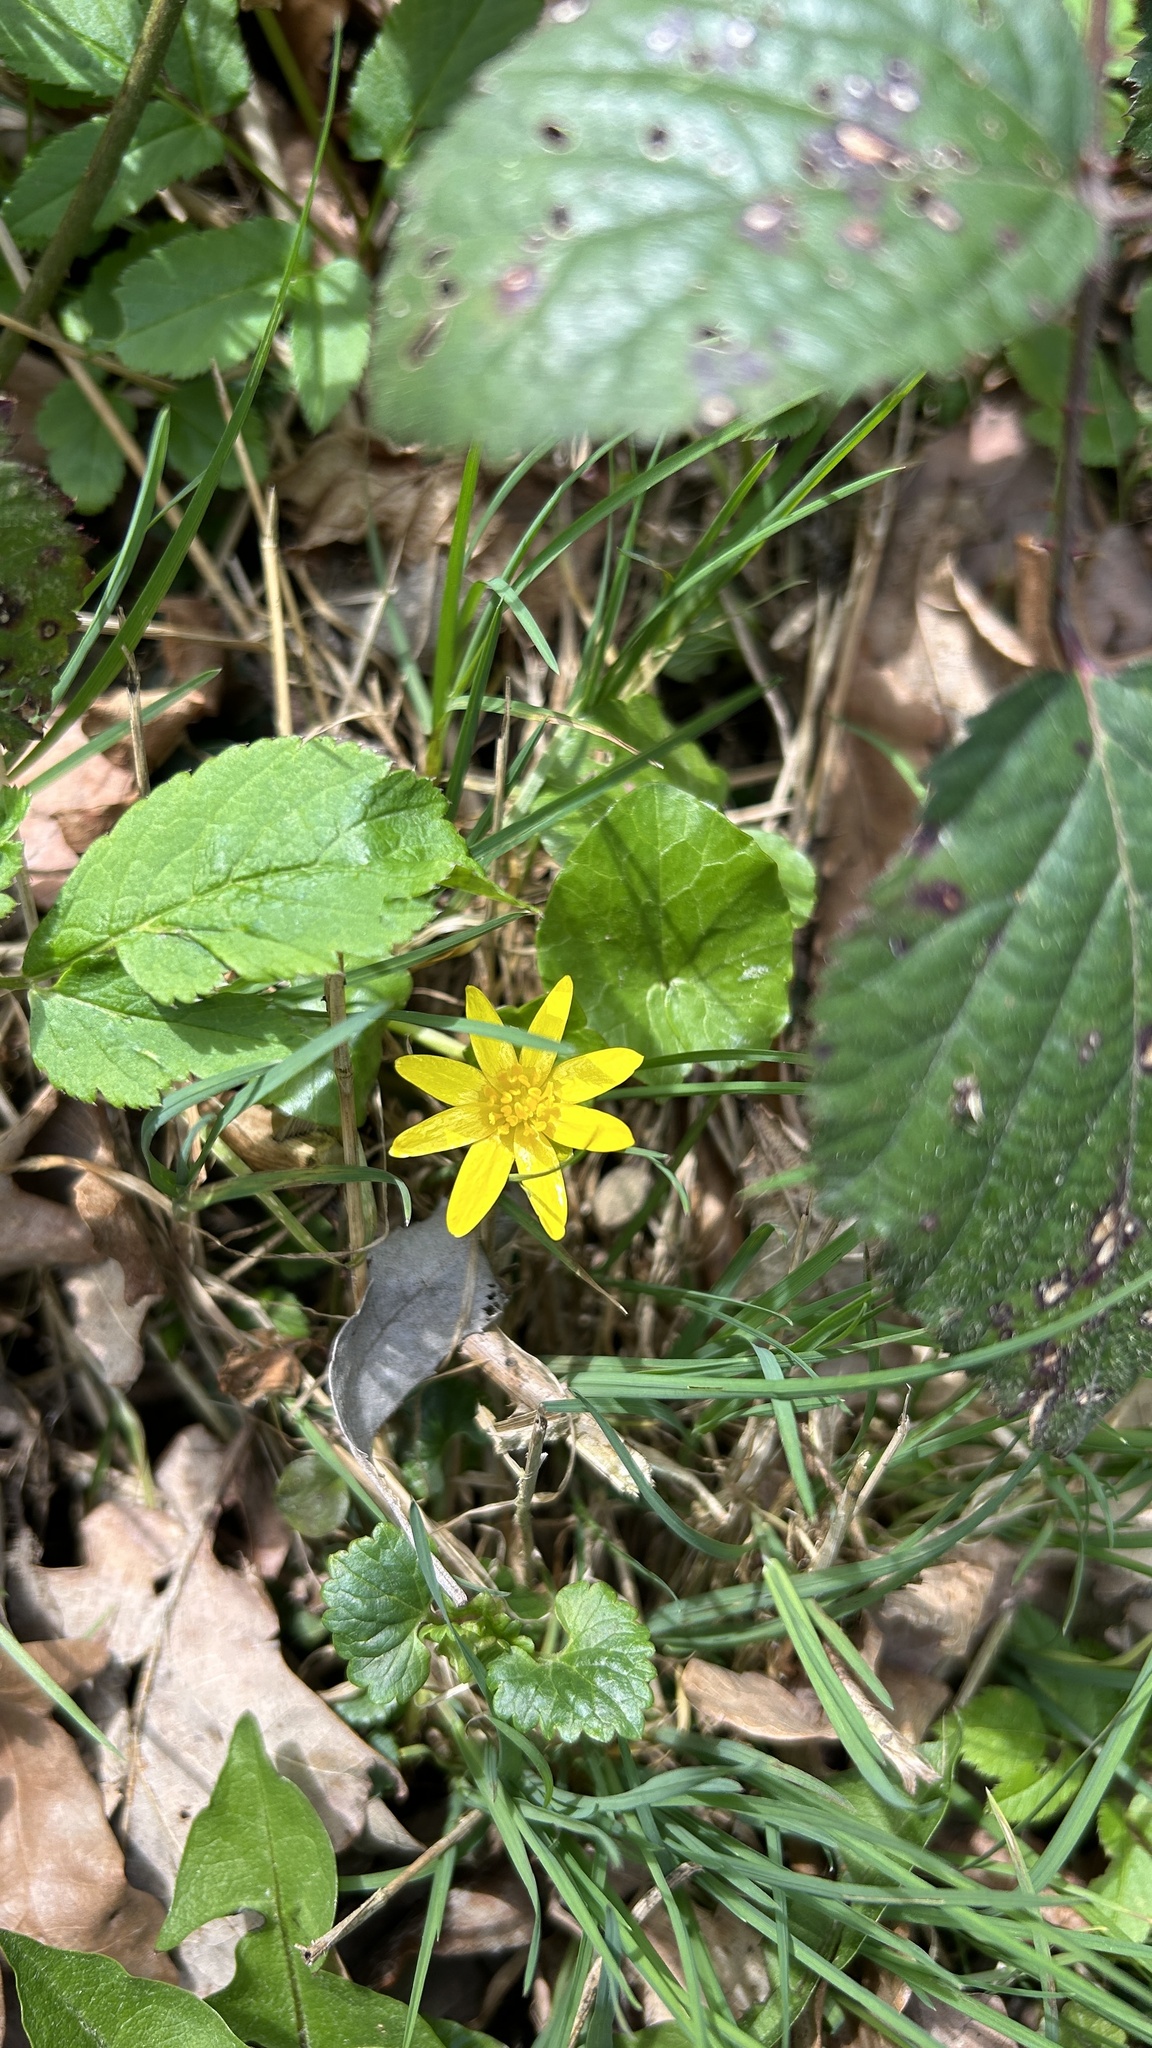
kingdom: Plantae
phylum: Tracheophyta
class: Magnoliopsida
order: Ranunculales
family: Ranunculaceae
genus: Ficaria
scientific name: Ficaria verna
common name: Lesser celandine
